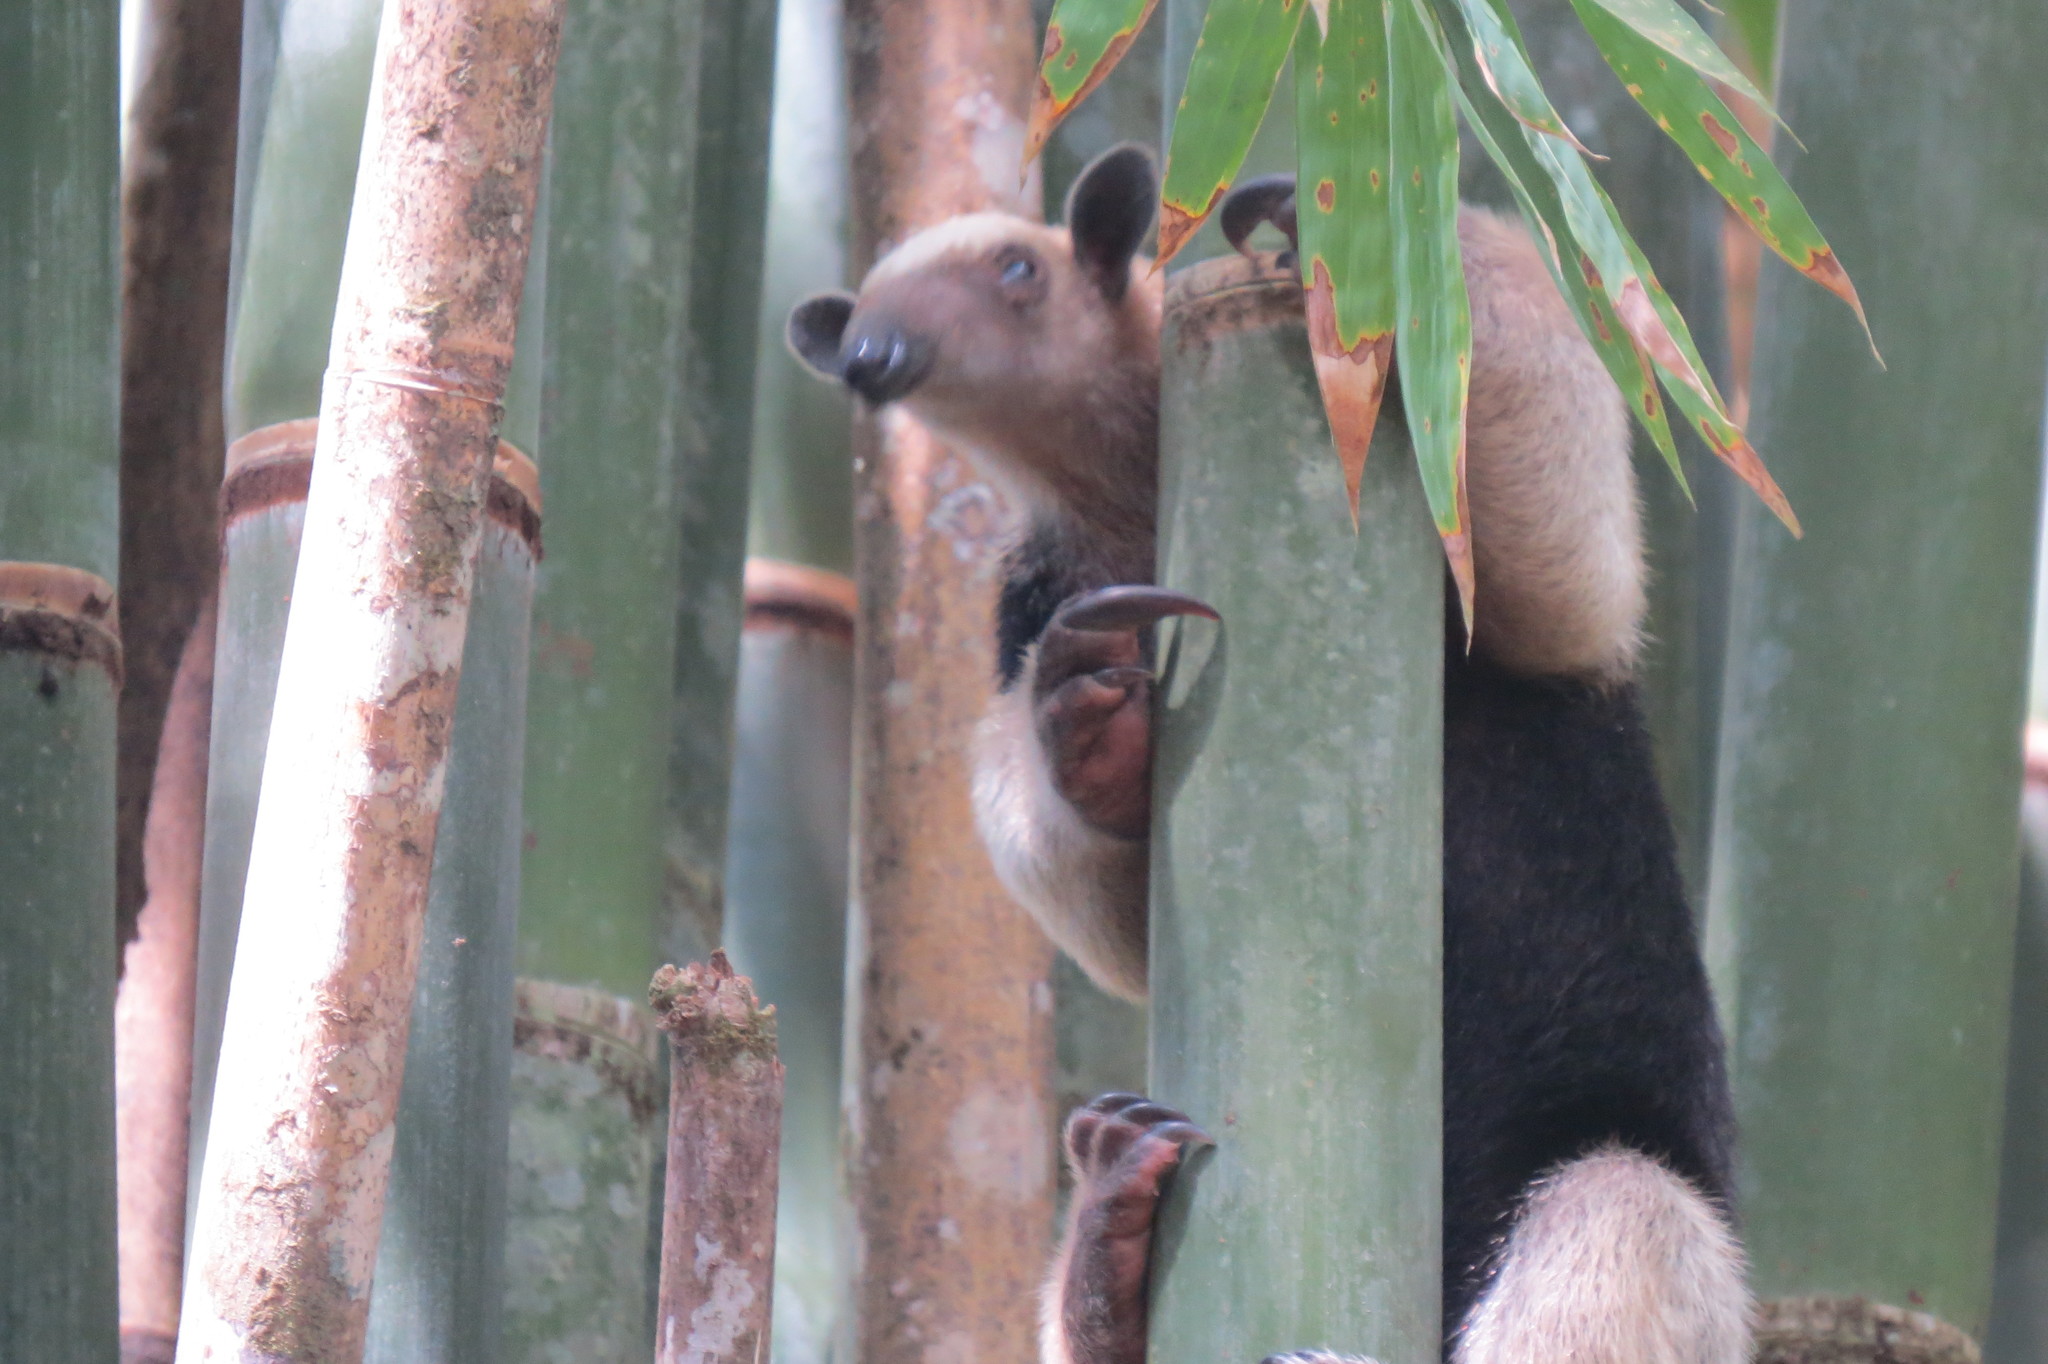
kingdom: Animalia
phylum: Chordata
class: Mammalia
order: Pilosa
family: Myrmecophagidae
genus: Tamandua
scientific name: Tamandua mexicana
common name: Northern tamandua
